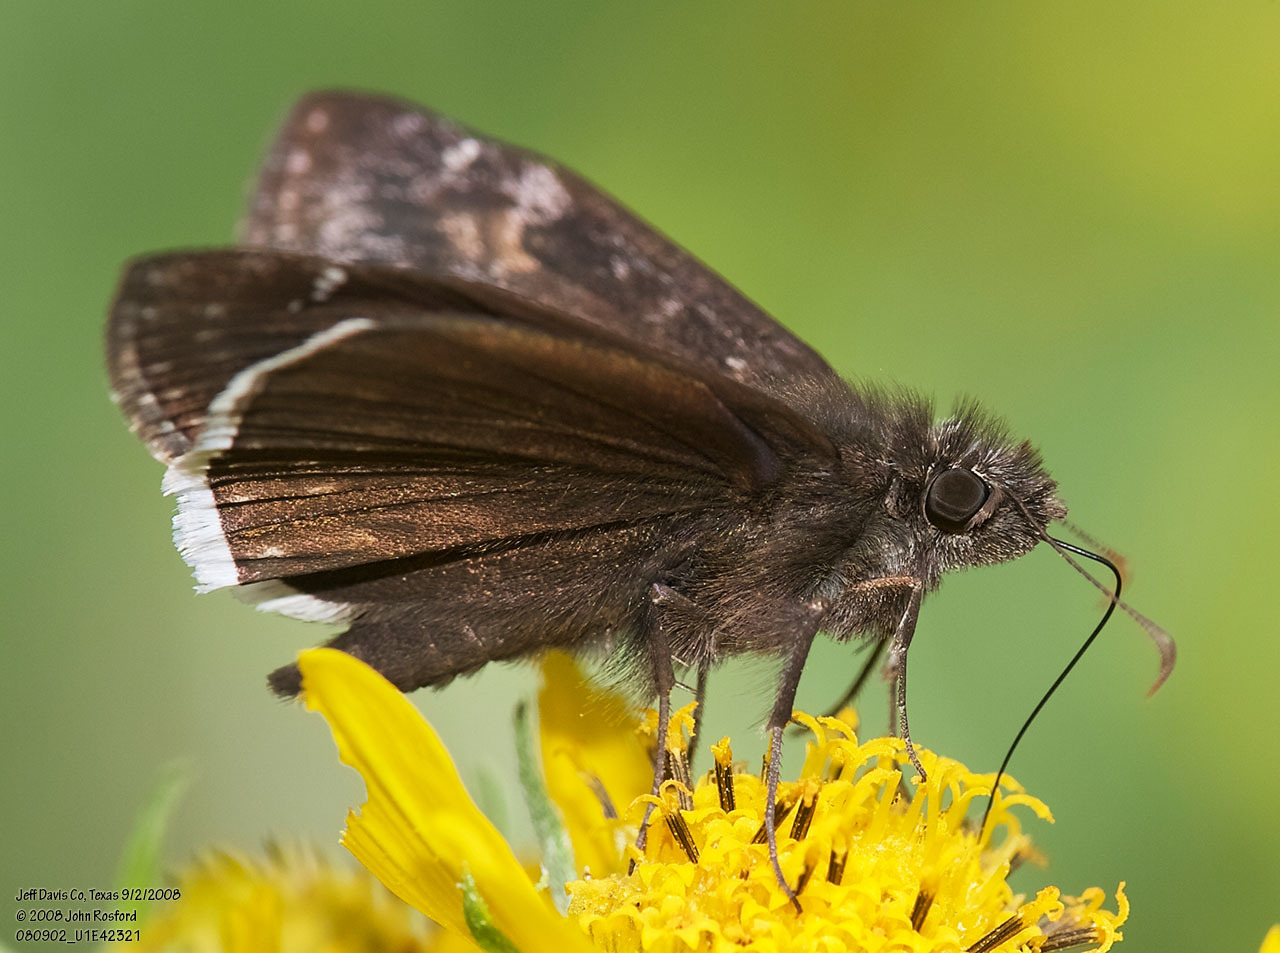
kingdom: Animalia
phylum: Arthropoda
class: Insecta
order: Lepidoptera
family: Hesperiidae
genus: Erynnis
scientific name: Erynnis funeralis
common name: Funereal duskywing
